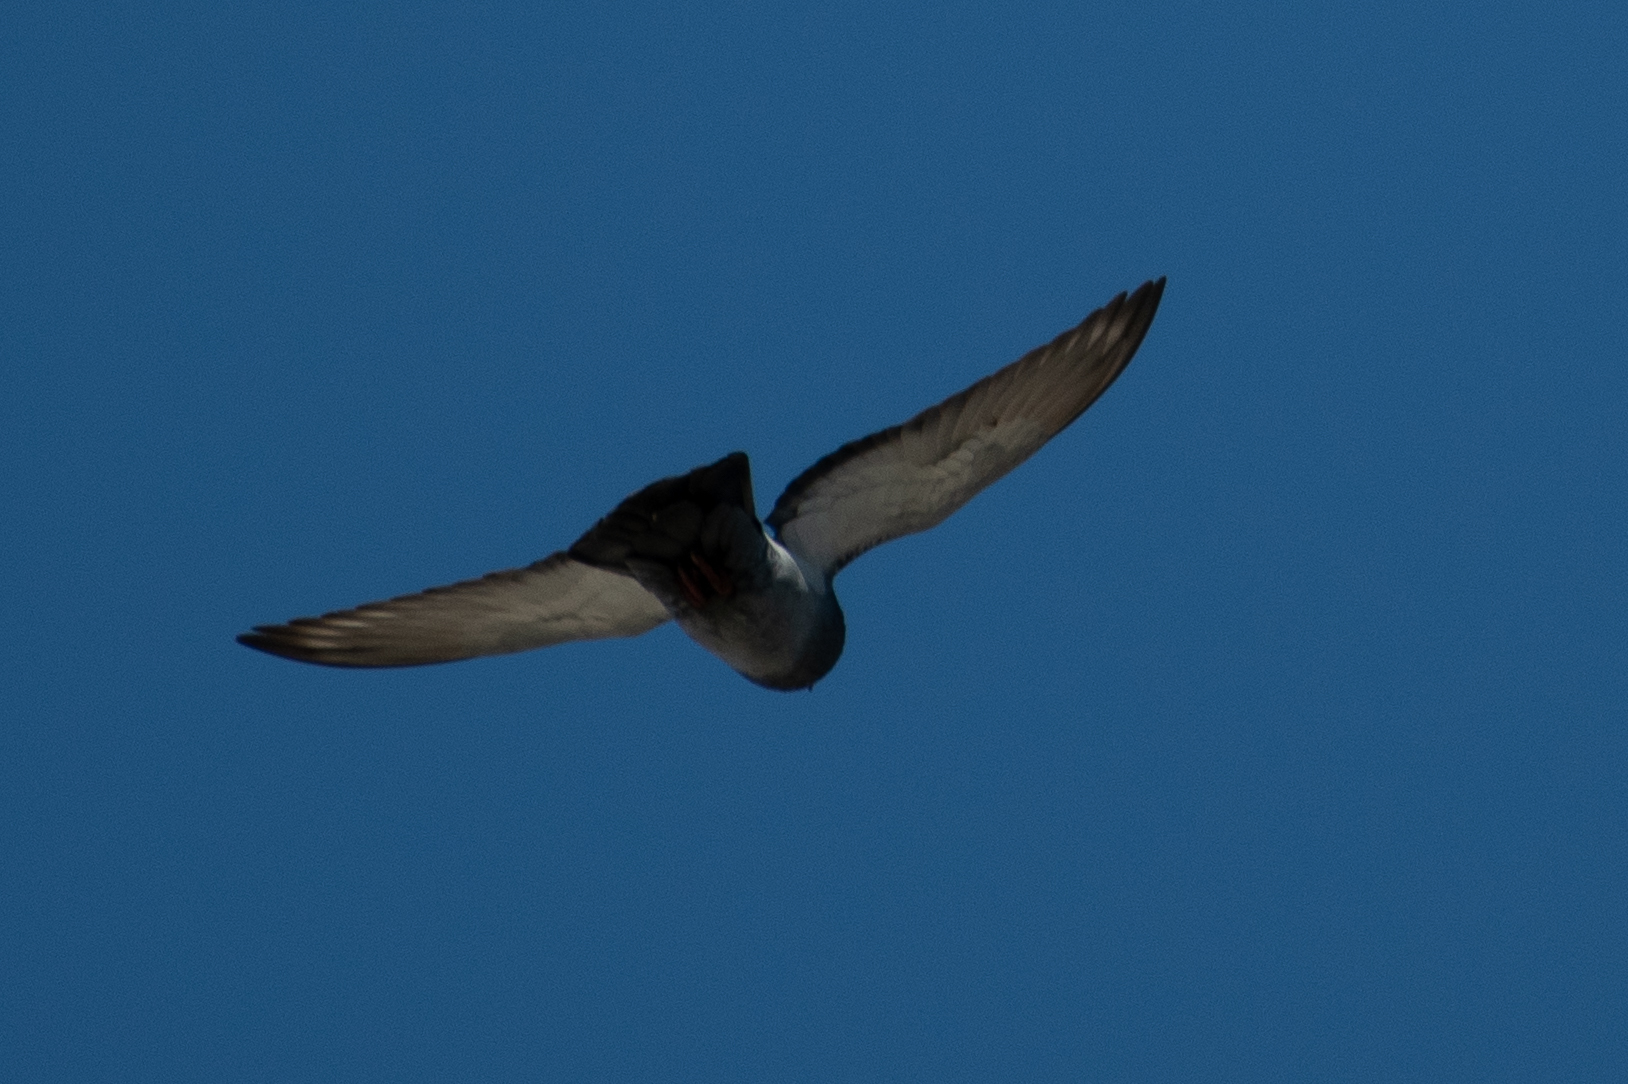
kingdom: Animalia
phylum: Chordata
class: Aves
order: Columbiformes
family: Columbidae
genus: Columba
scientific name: Columba livia
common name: Rock pigeon
